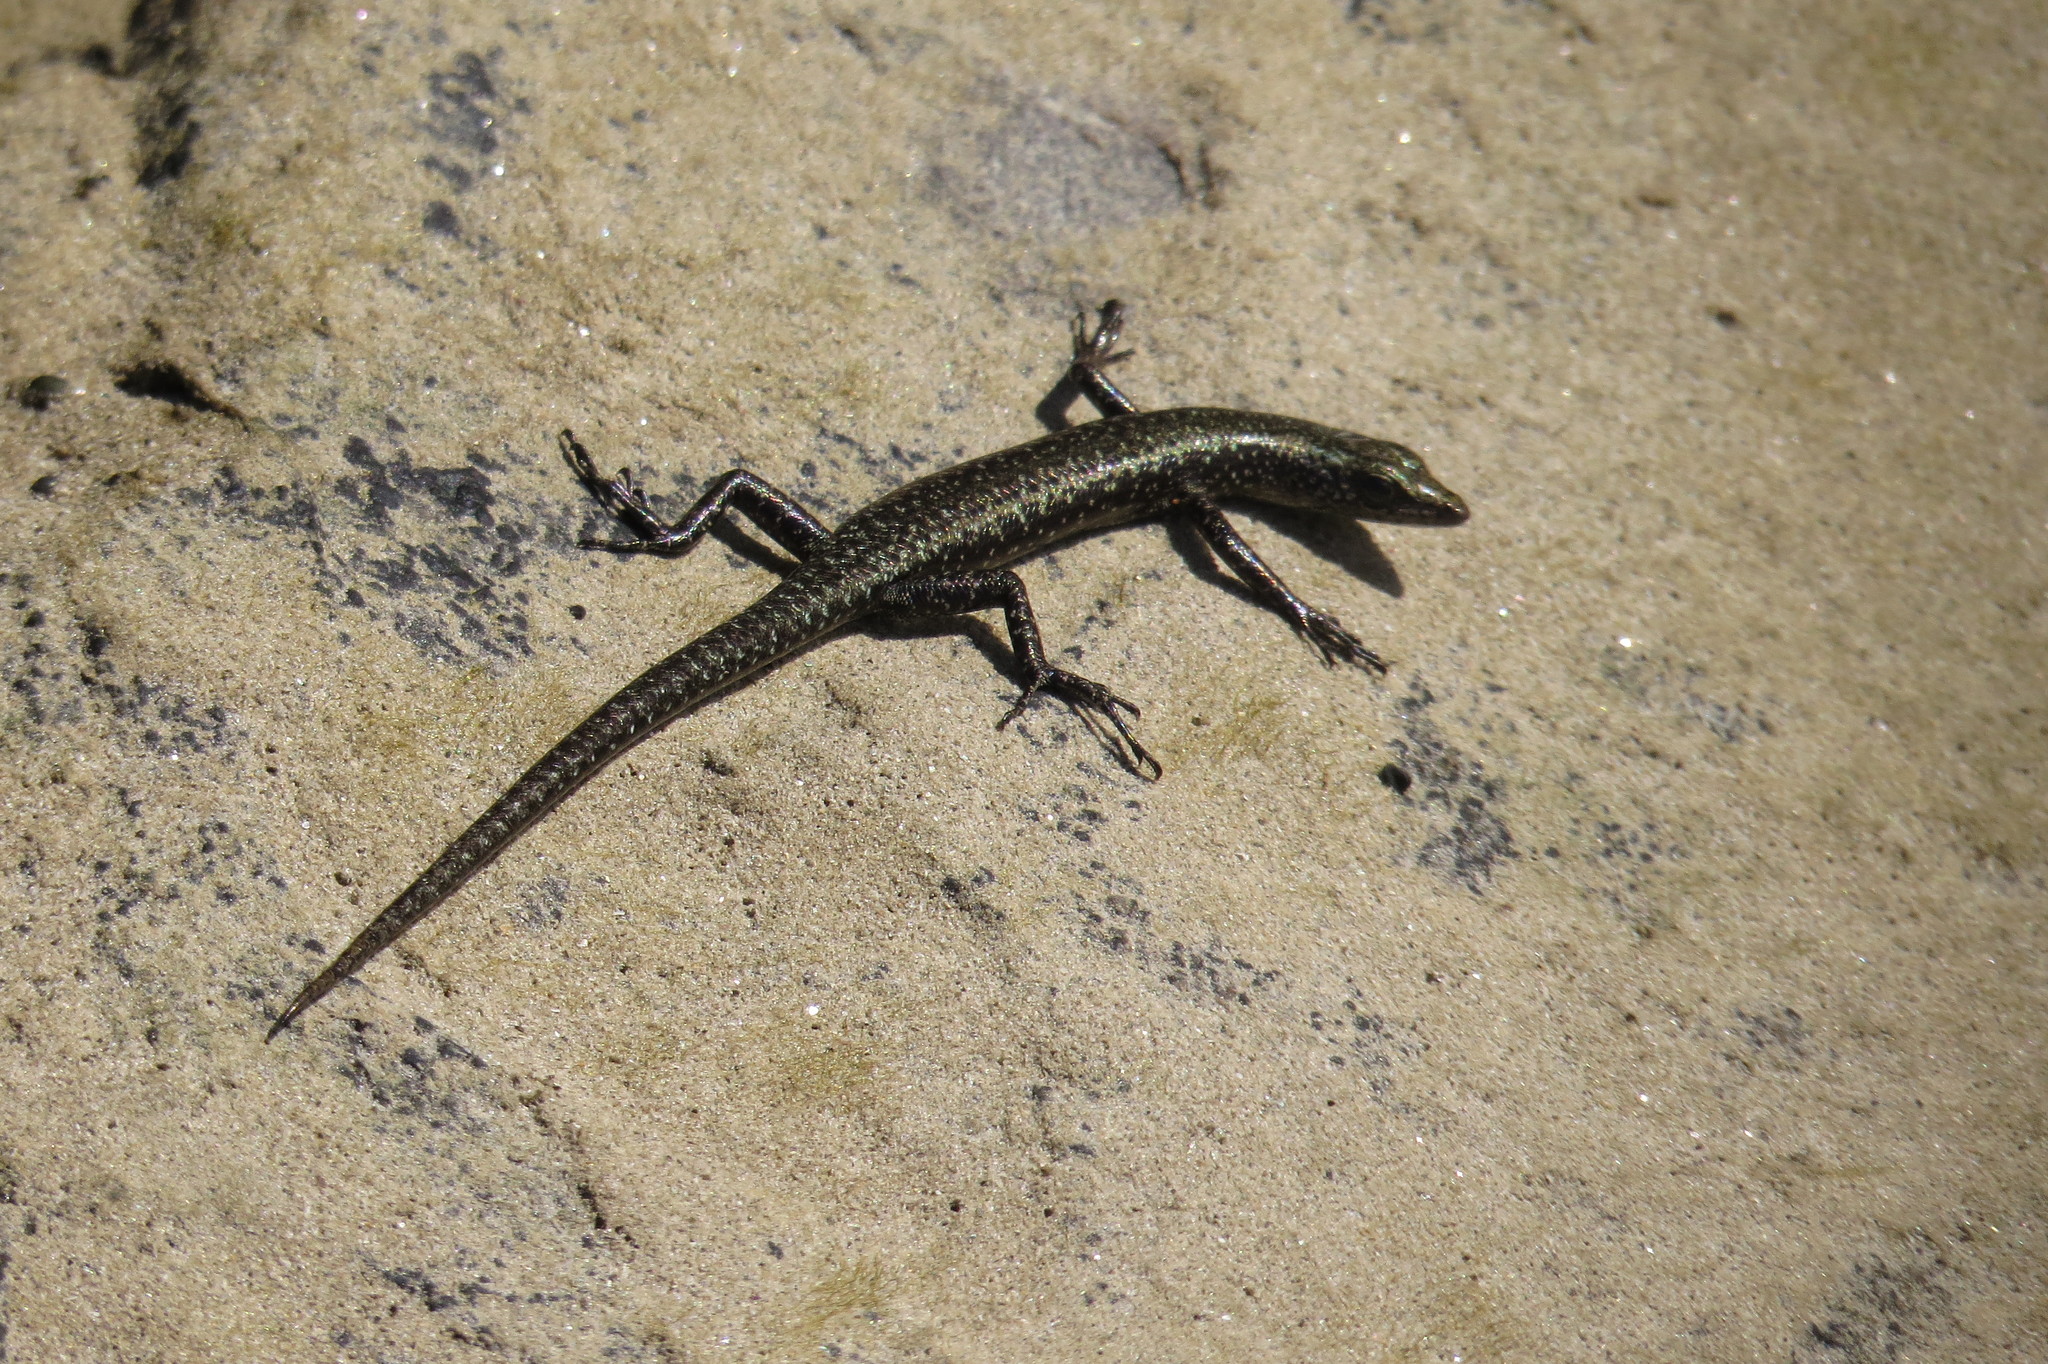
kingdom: Animalia
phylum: Chordata
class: Squamata
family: Scincidae
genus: Cryptoblepharus
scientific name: Cryptoblepharus litoralis
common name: Coastal snake-eyed skink
